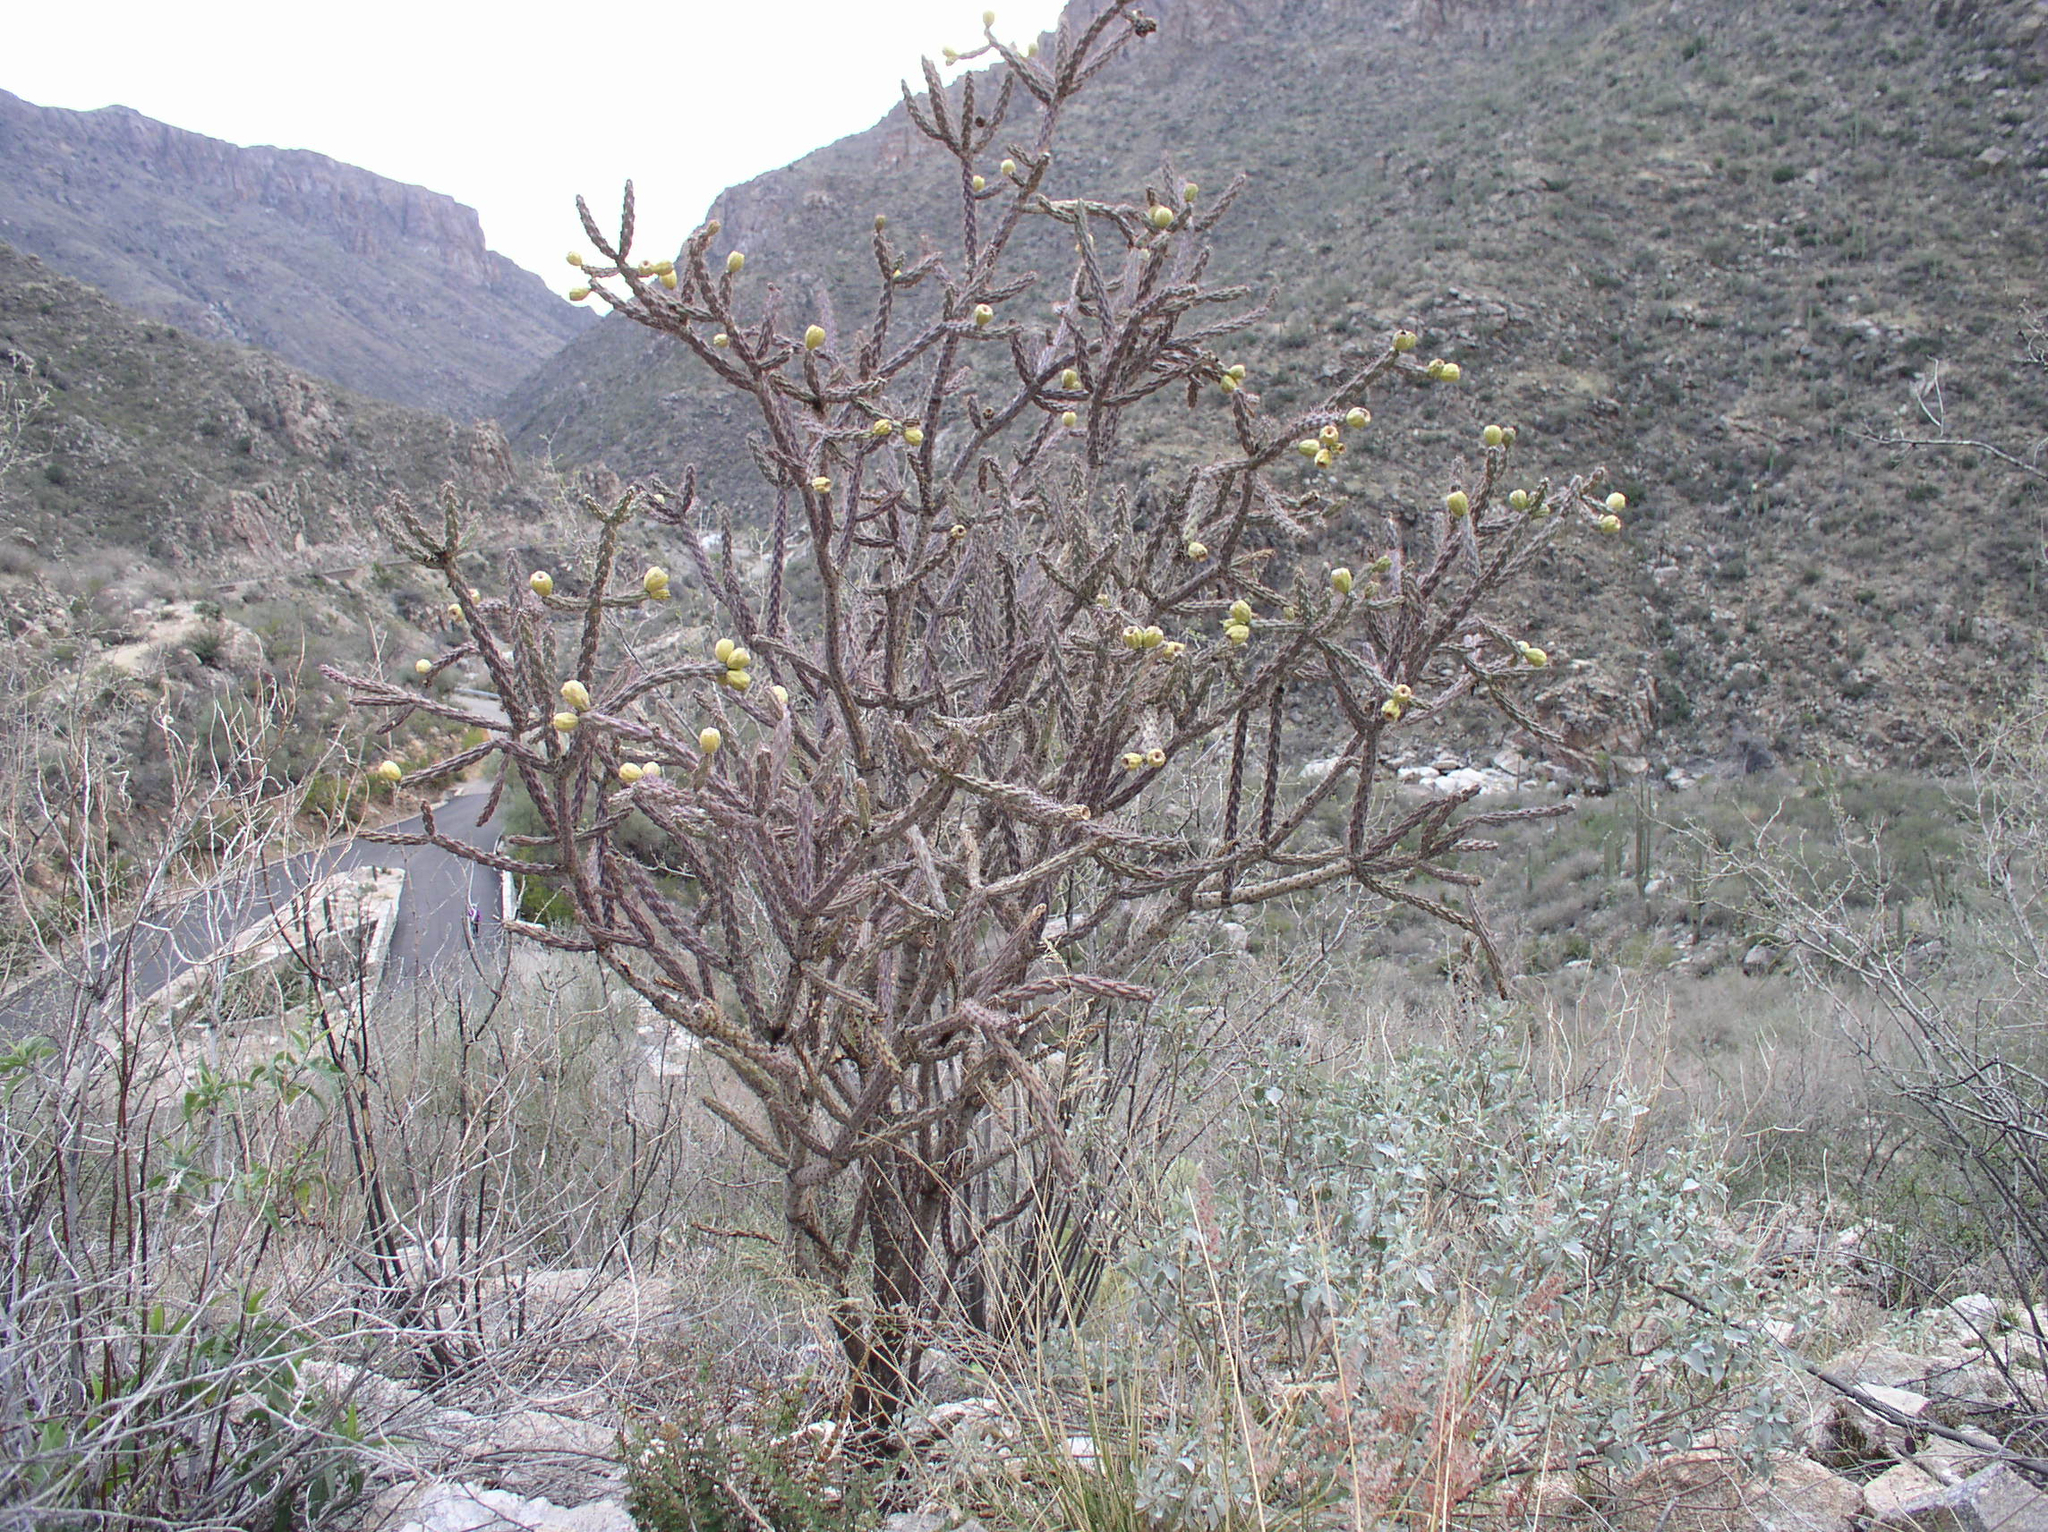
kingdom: Plantae
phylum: Tracheophyta
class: Magnoliopsida
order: Caryophyllales
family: Cactaceae
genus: Cylindropuntia
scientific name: Cylindropuntia thurberi
